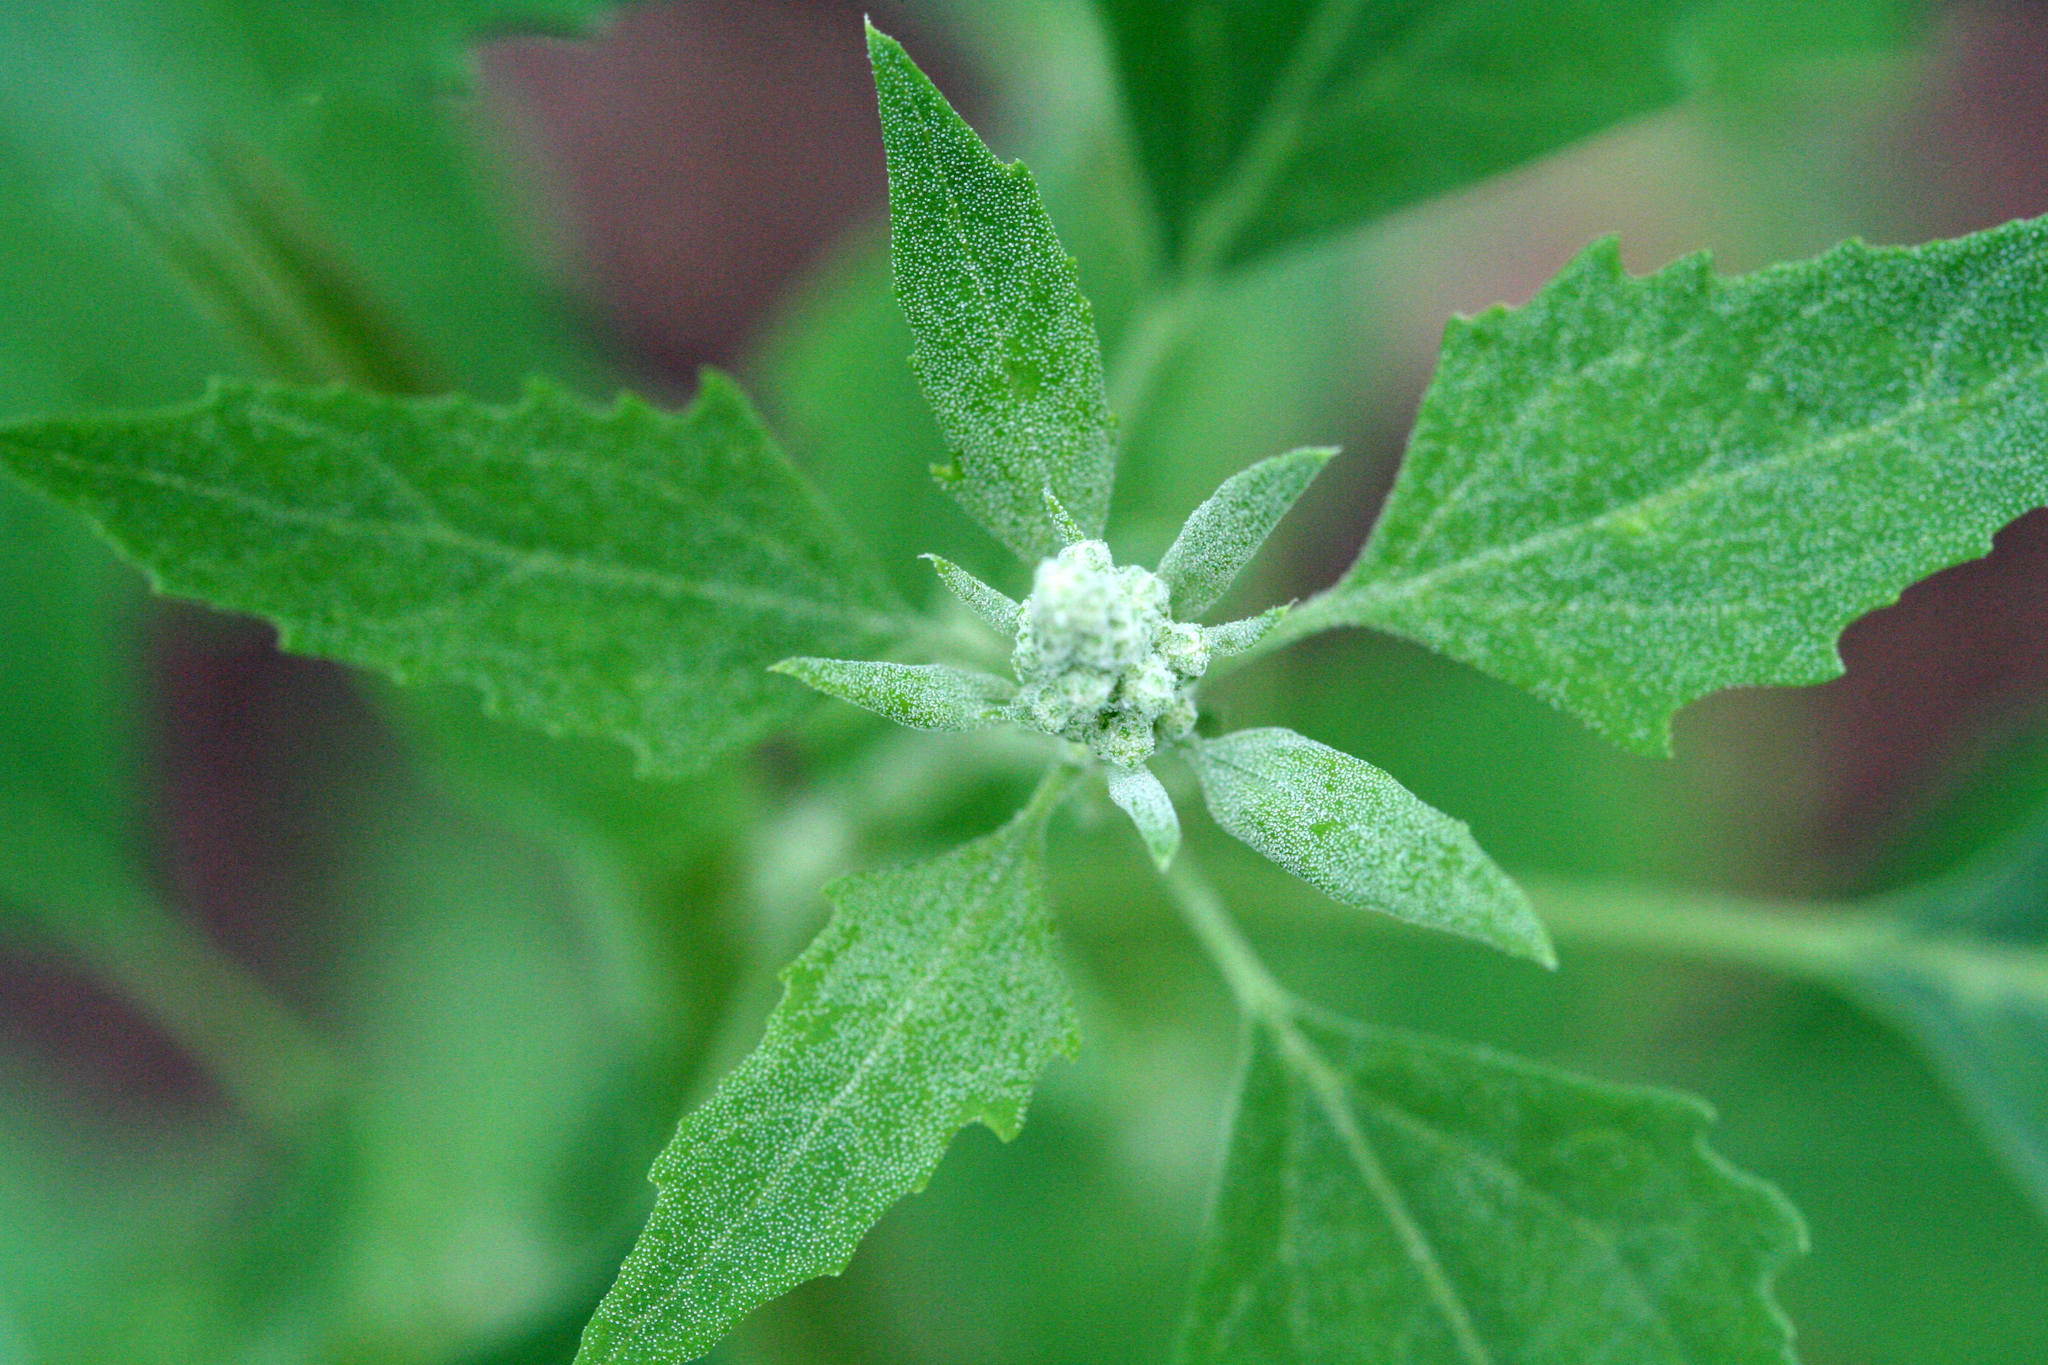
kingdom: Plantae
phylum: Tracheophyta
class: Magnoliopsida
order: Caryophyllales
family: Amaranthaceae
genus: Chenopodium
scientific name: Chenopodium album
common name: Fat-hen
